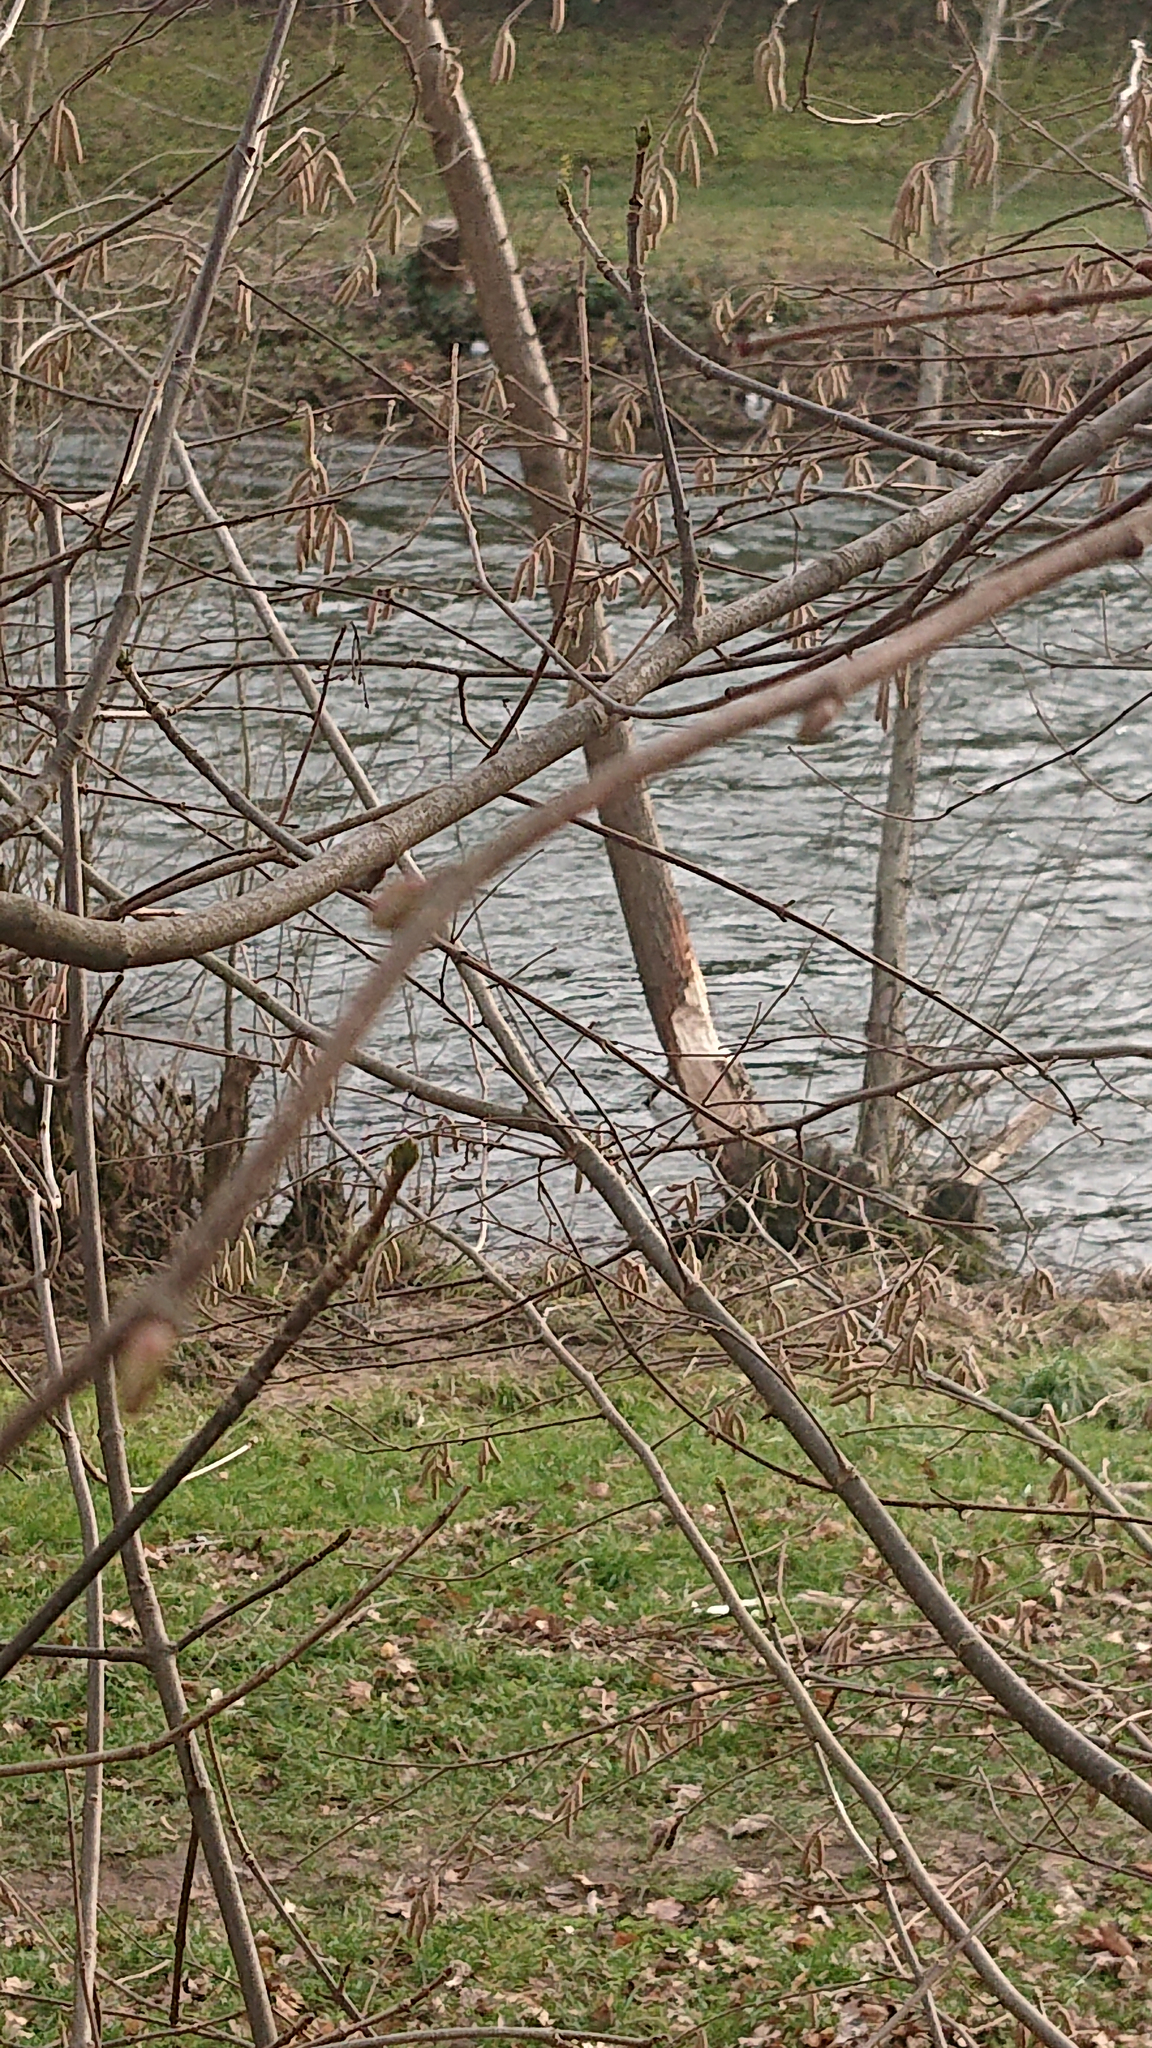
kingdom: Animalia
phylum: Chordata
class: Mammalia
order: Rodentia
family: Castoridae
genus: Castor
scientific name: Castor fiber
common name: Eurasian beaver
